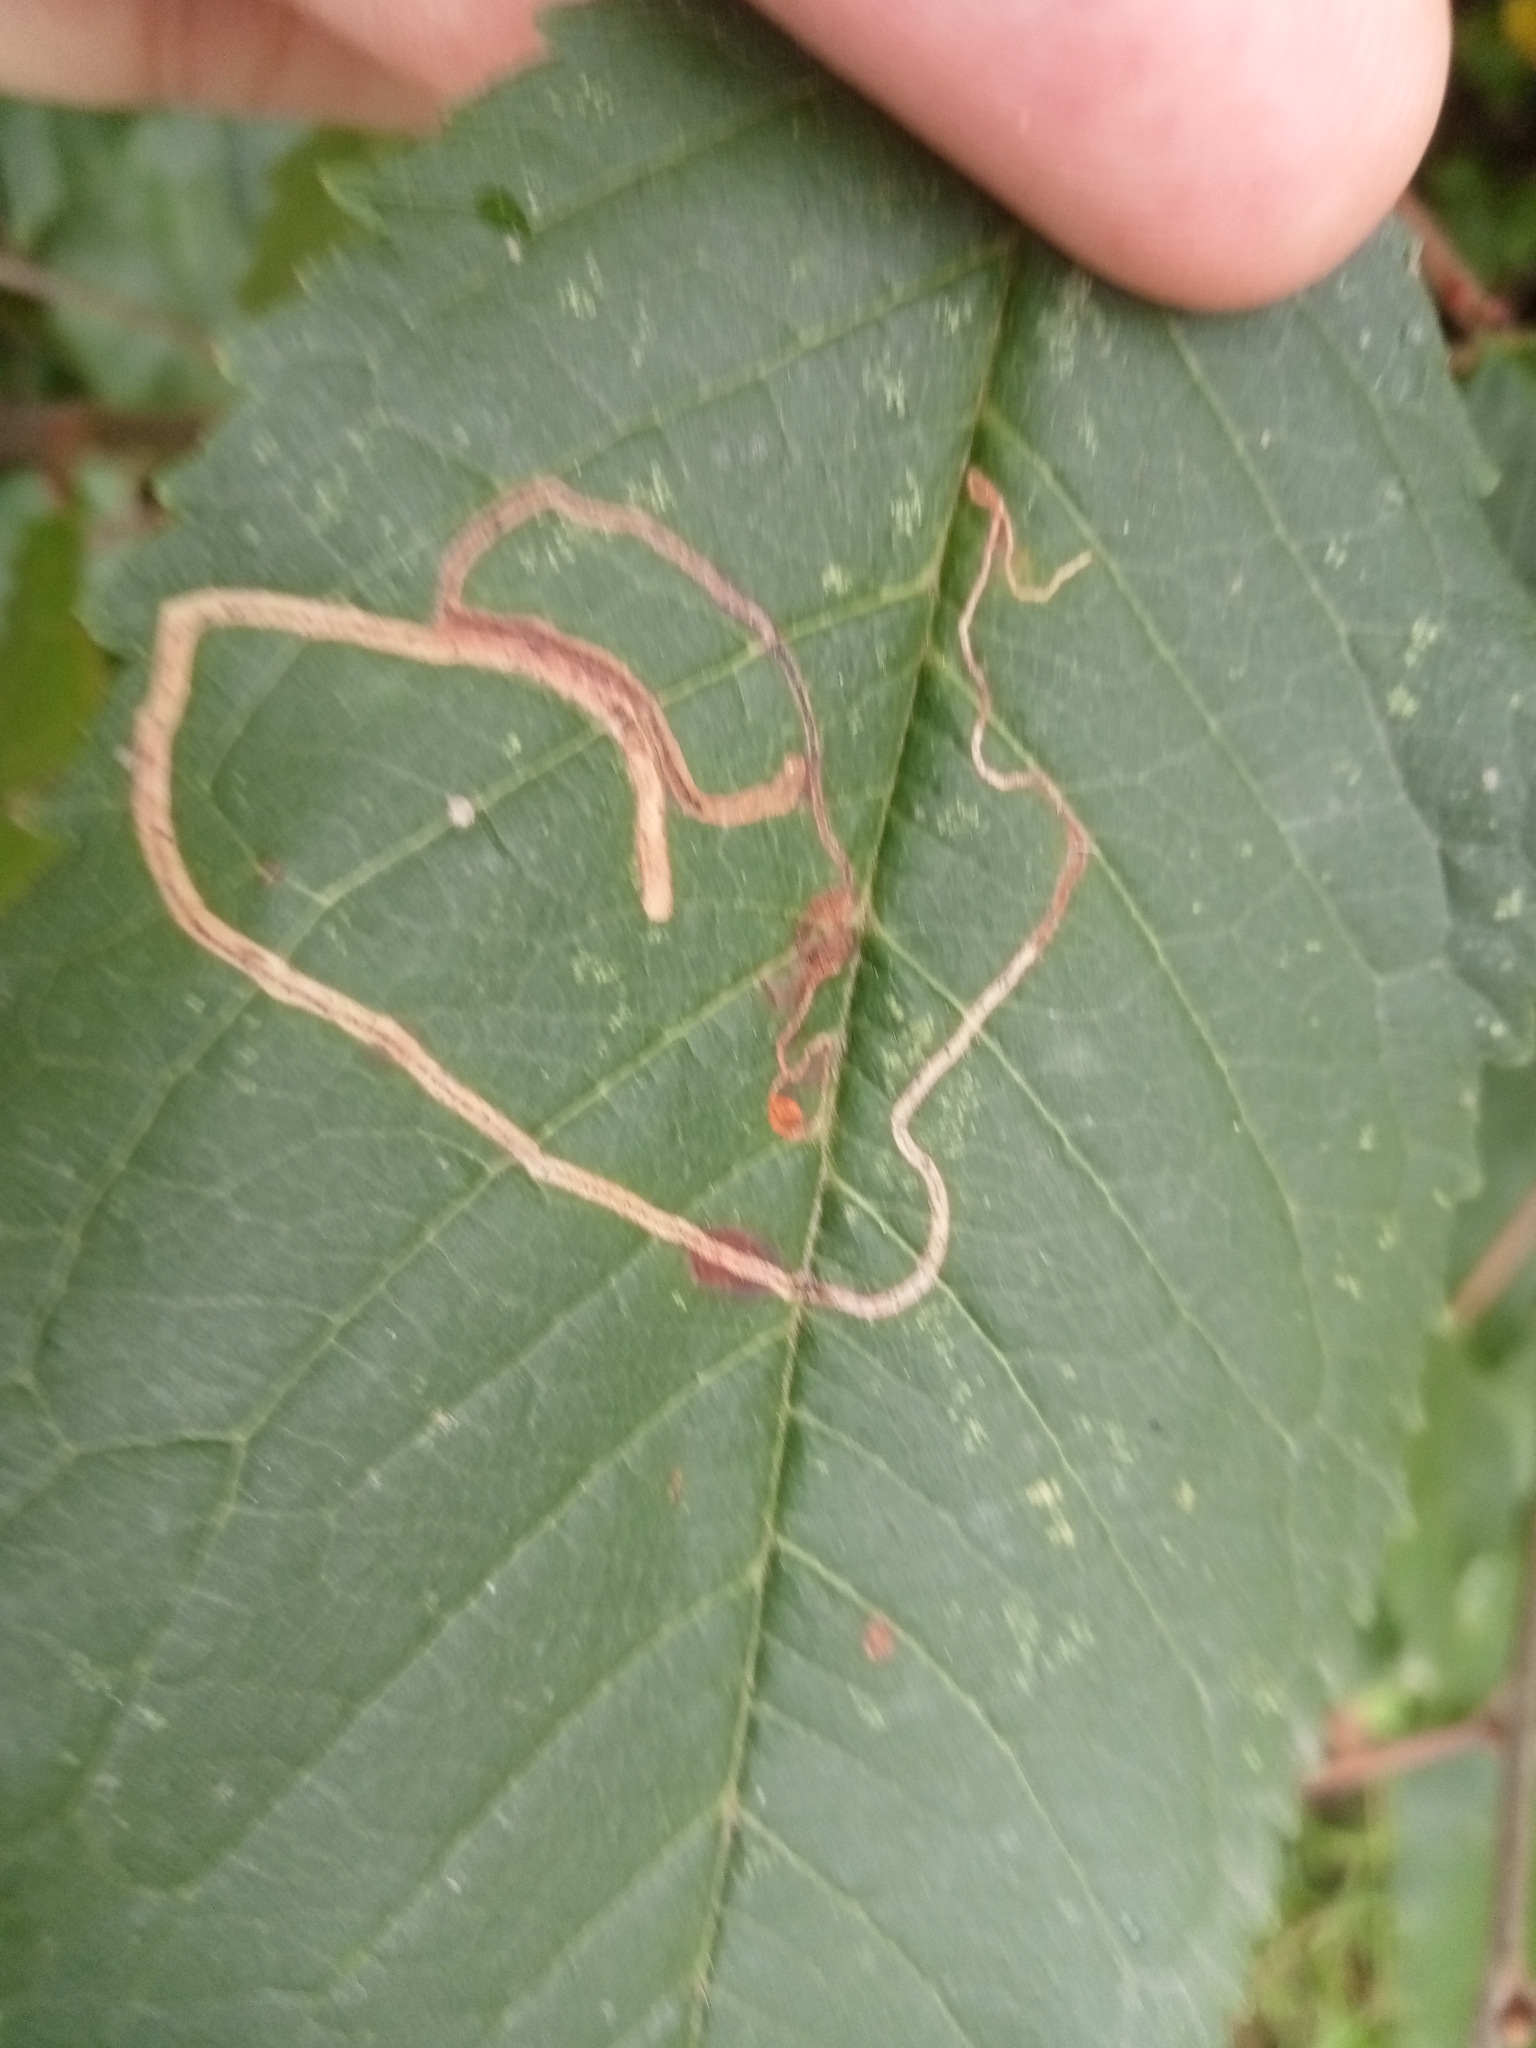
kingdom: Animalia
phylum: Arthropoda
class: Insecta
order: Lepidoptera
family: Lyonetiidae
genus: Lyonetia
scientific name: Lyonetia clerkella
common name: Apple leaf miner
